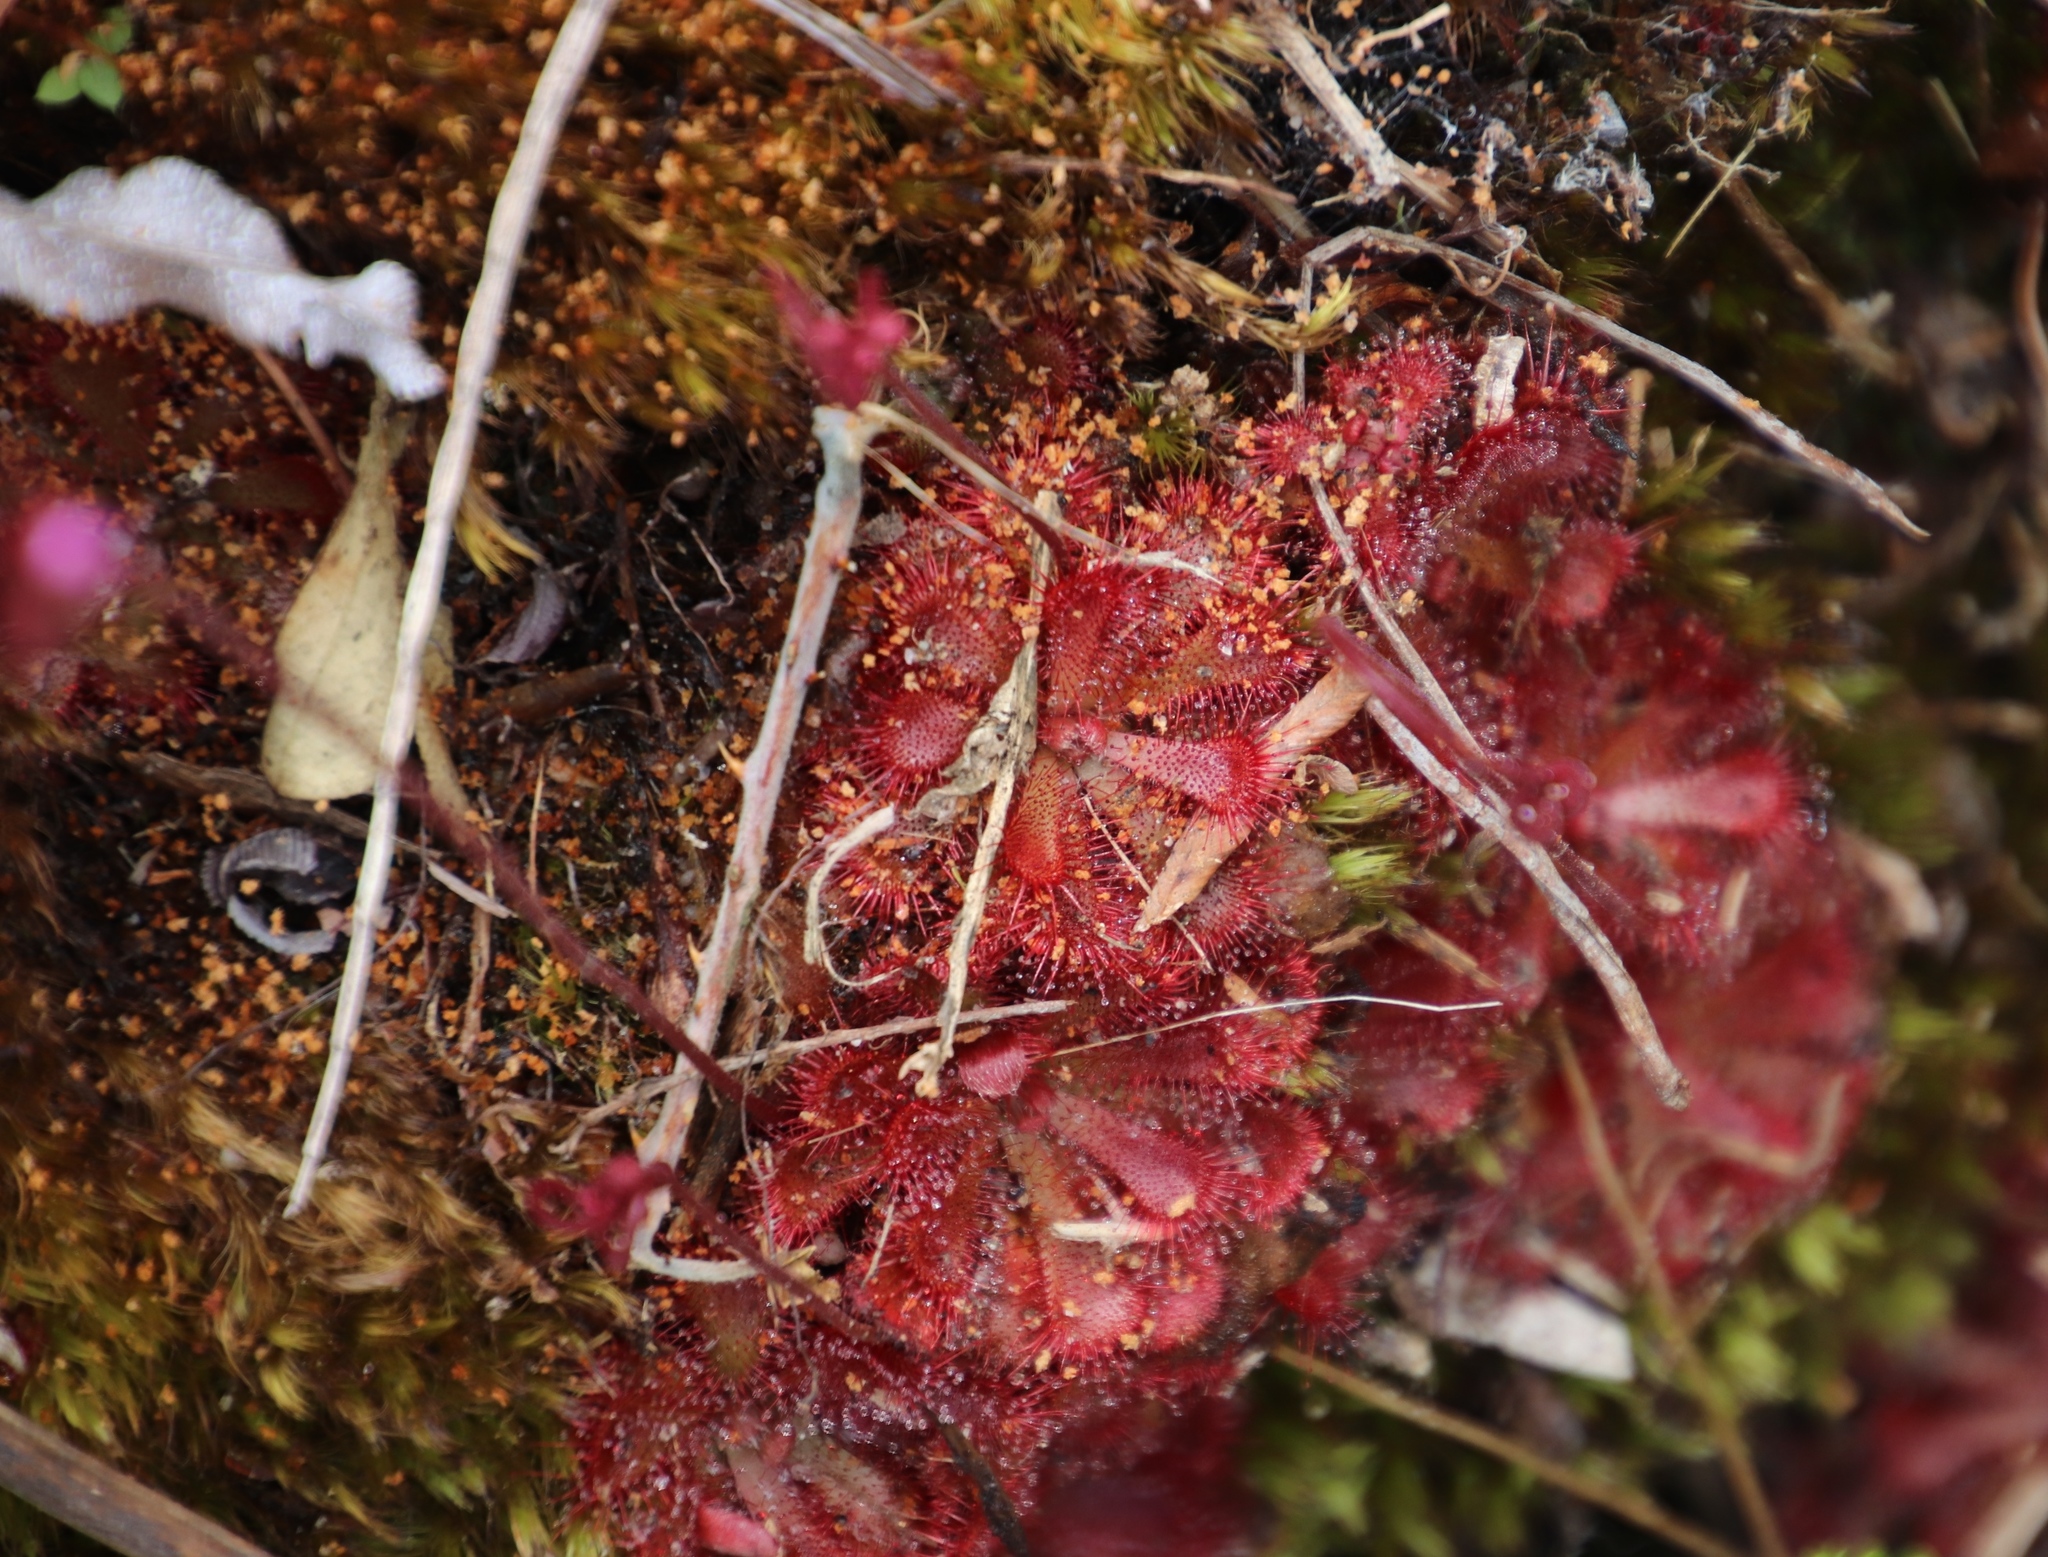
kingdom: Plantae
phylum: Tracheophyta
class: Magnoliopsida
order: Caryophyllales
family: Droseraceae
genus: Drosera
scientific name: Drosera aliciae
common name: Alice sundew
